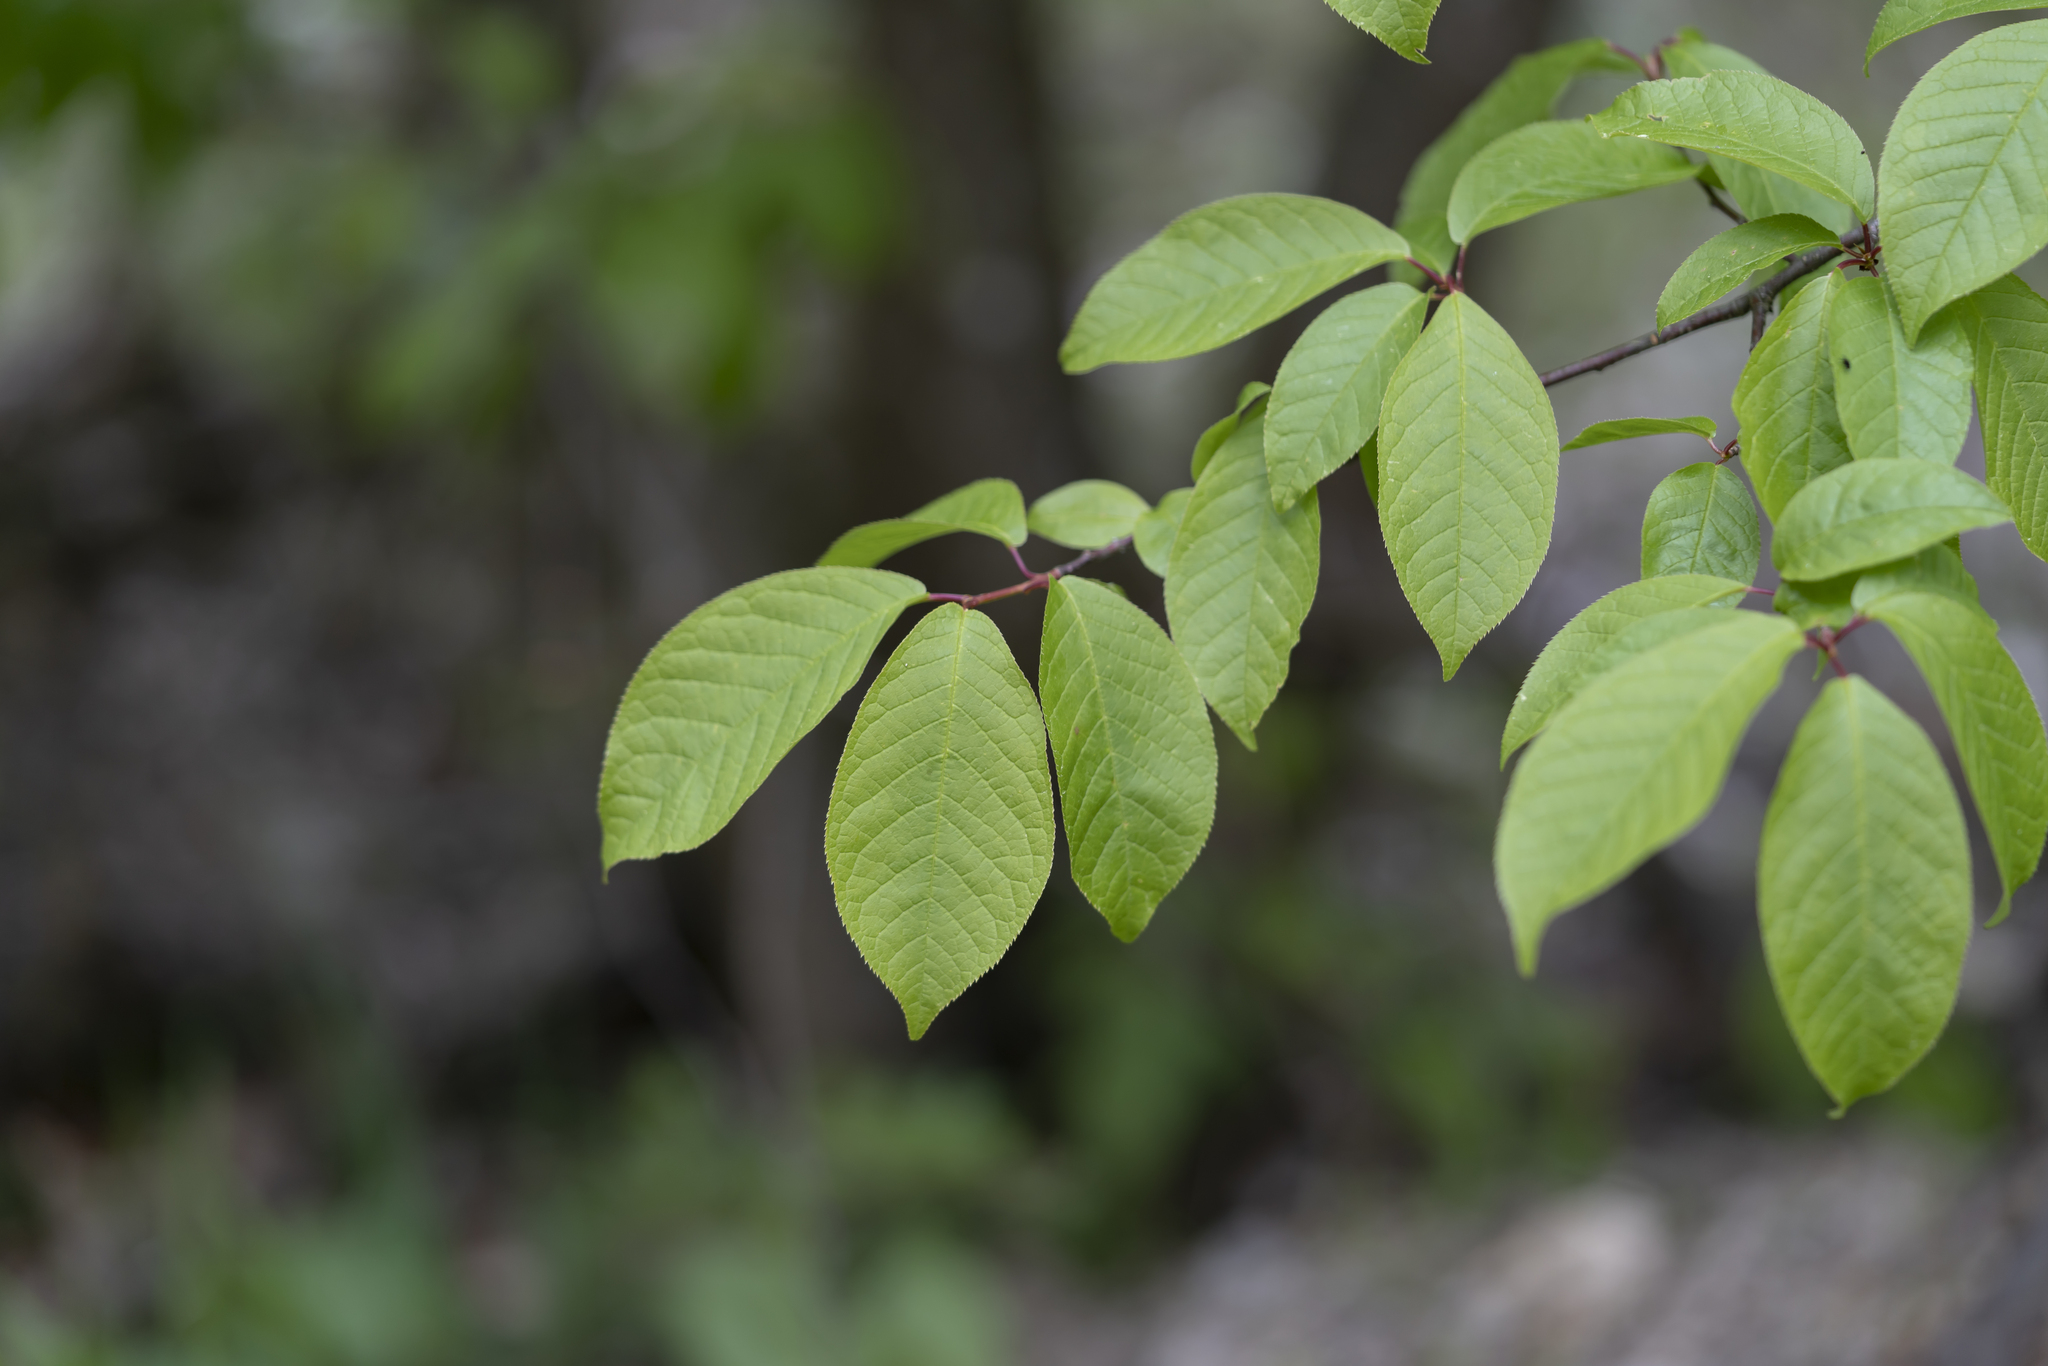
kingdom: Plantae
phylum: Tracheophyta
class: Magnoliopsida
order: Rosales
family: Rosaceae
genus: Prunus
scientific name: Prunus padus
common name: Bird cherry
